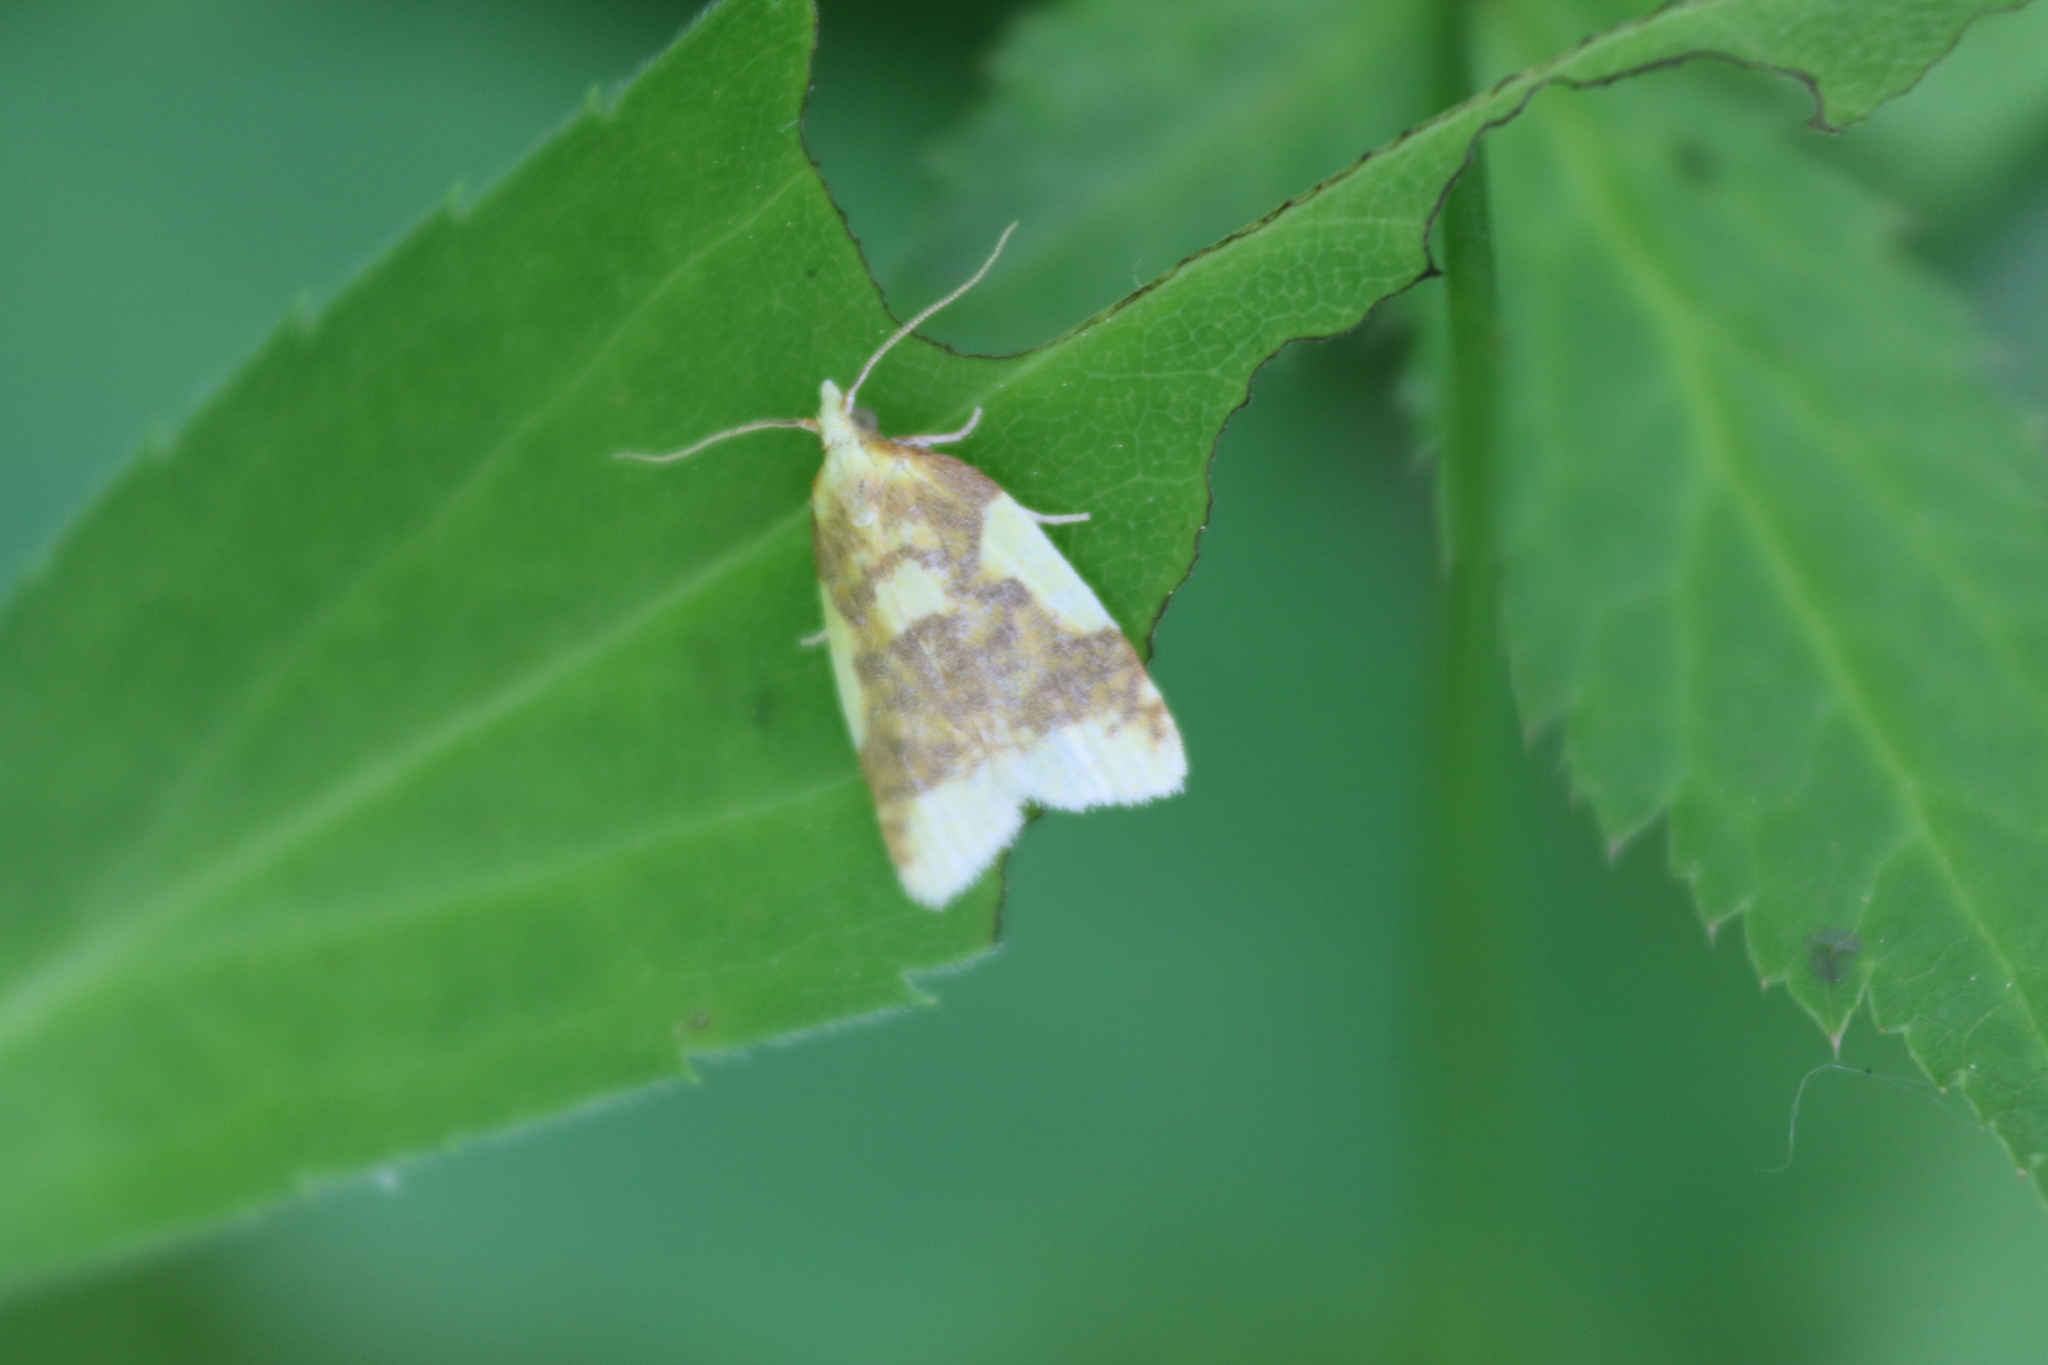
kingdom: Animalia
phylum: Arthropoda
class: Insecta
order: Lepidoptera
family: Tortricidae
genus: Sparganothis
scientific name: Sparganothis pulcherrimana
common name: Beautiful sparganothis
